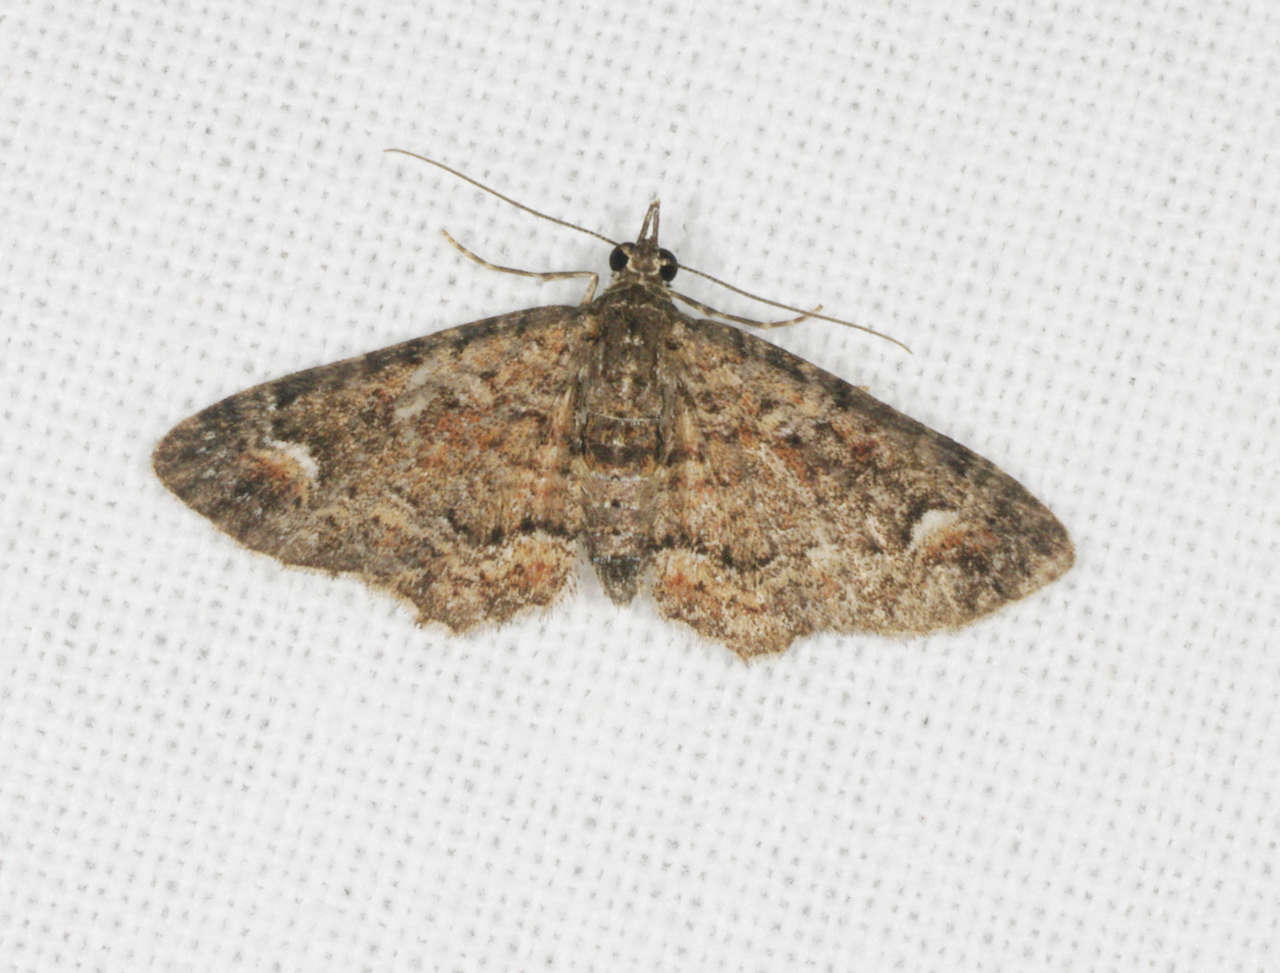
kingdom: Animalia
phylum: Arthropoda
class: Insecta
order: Lepidoptera
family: Geometridae
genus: Pasiphilodes
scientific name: Pasiphilodes testulata
